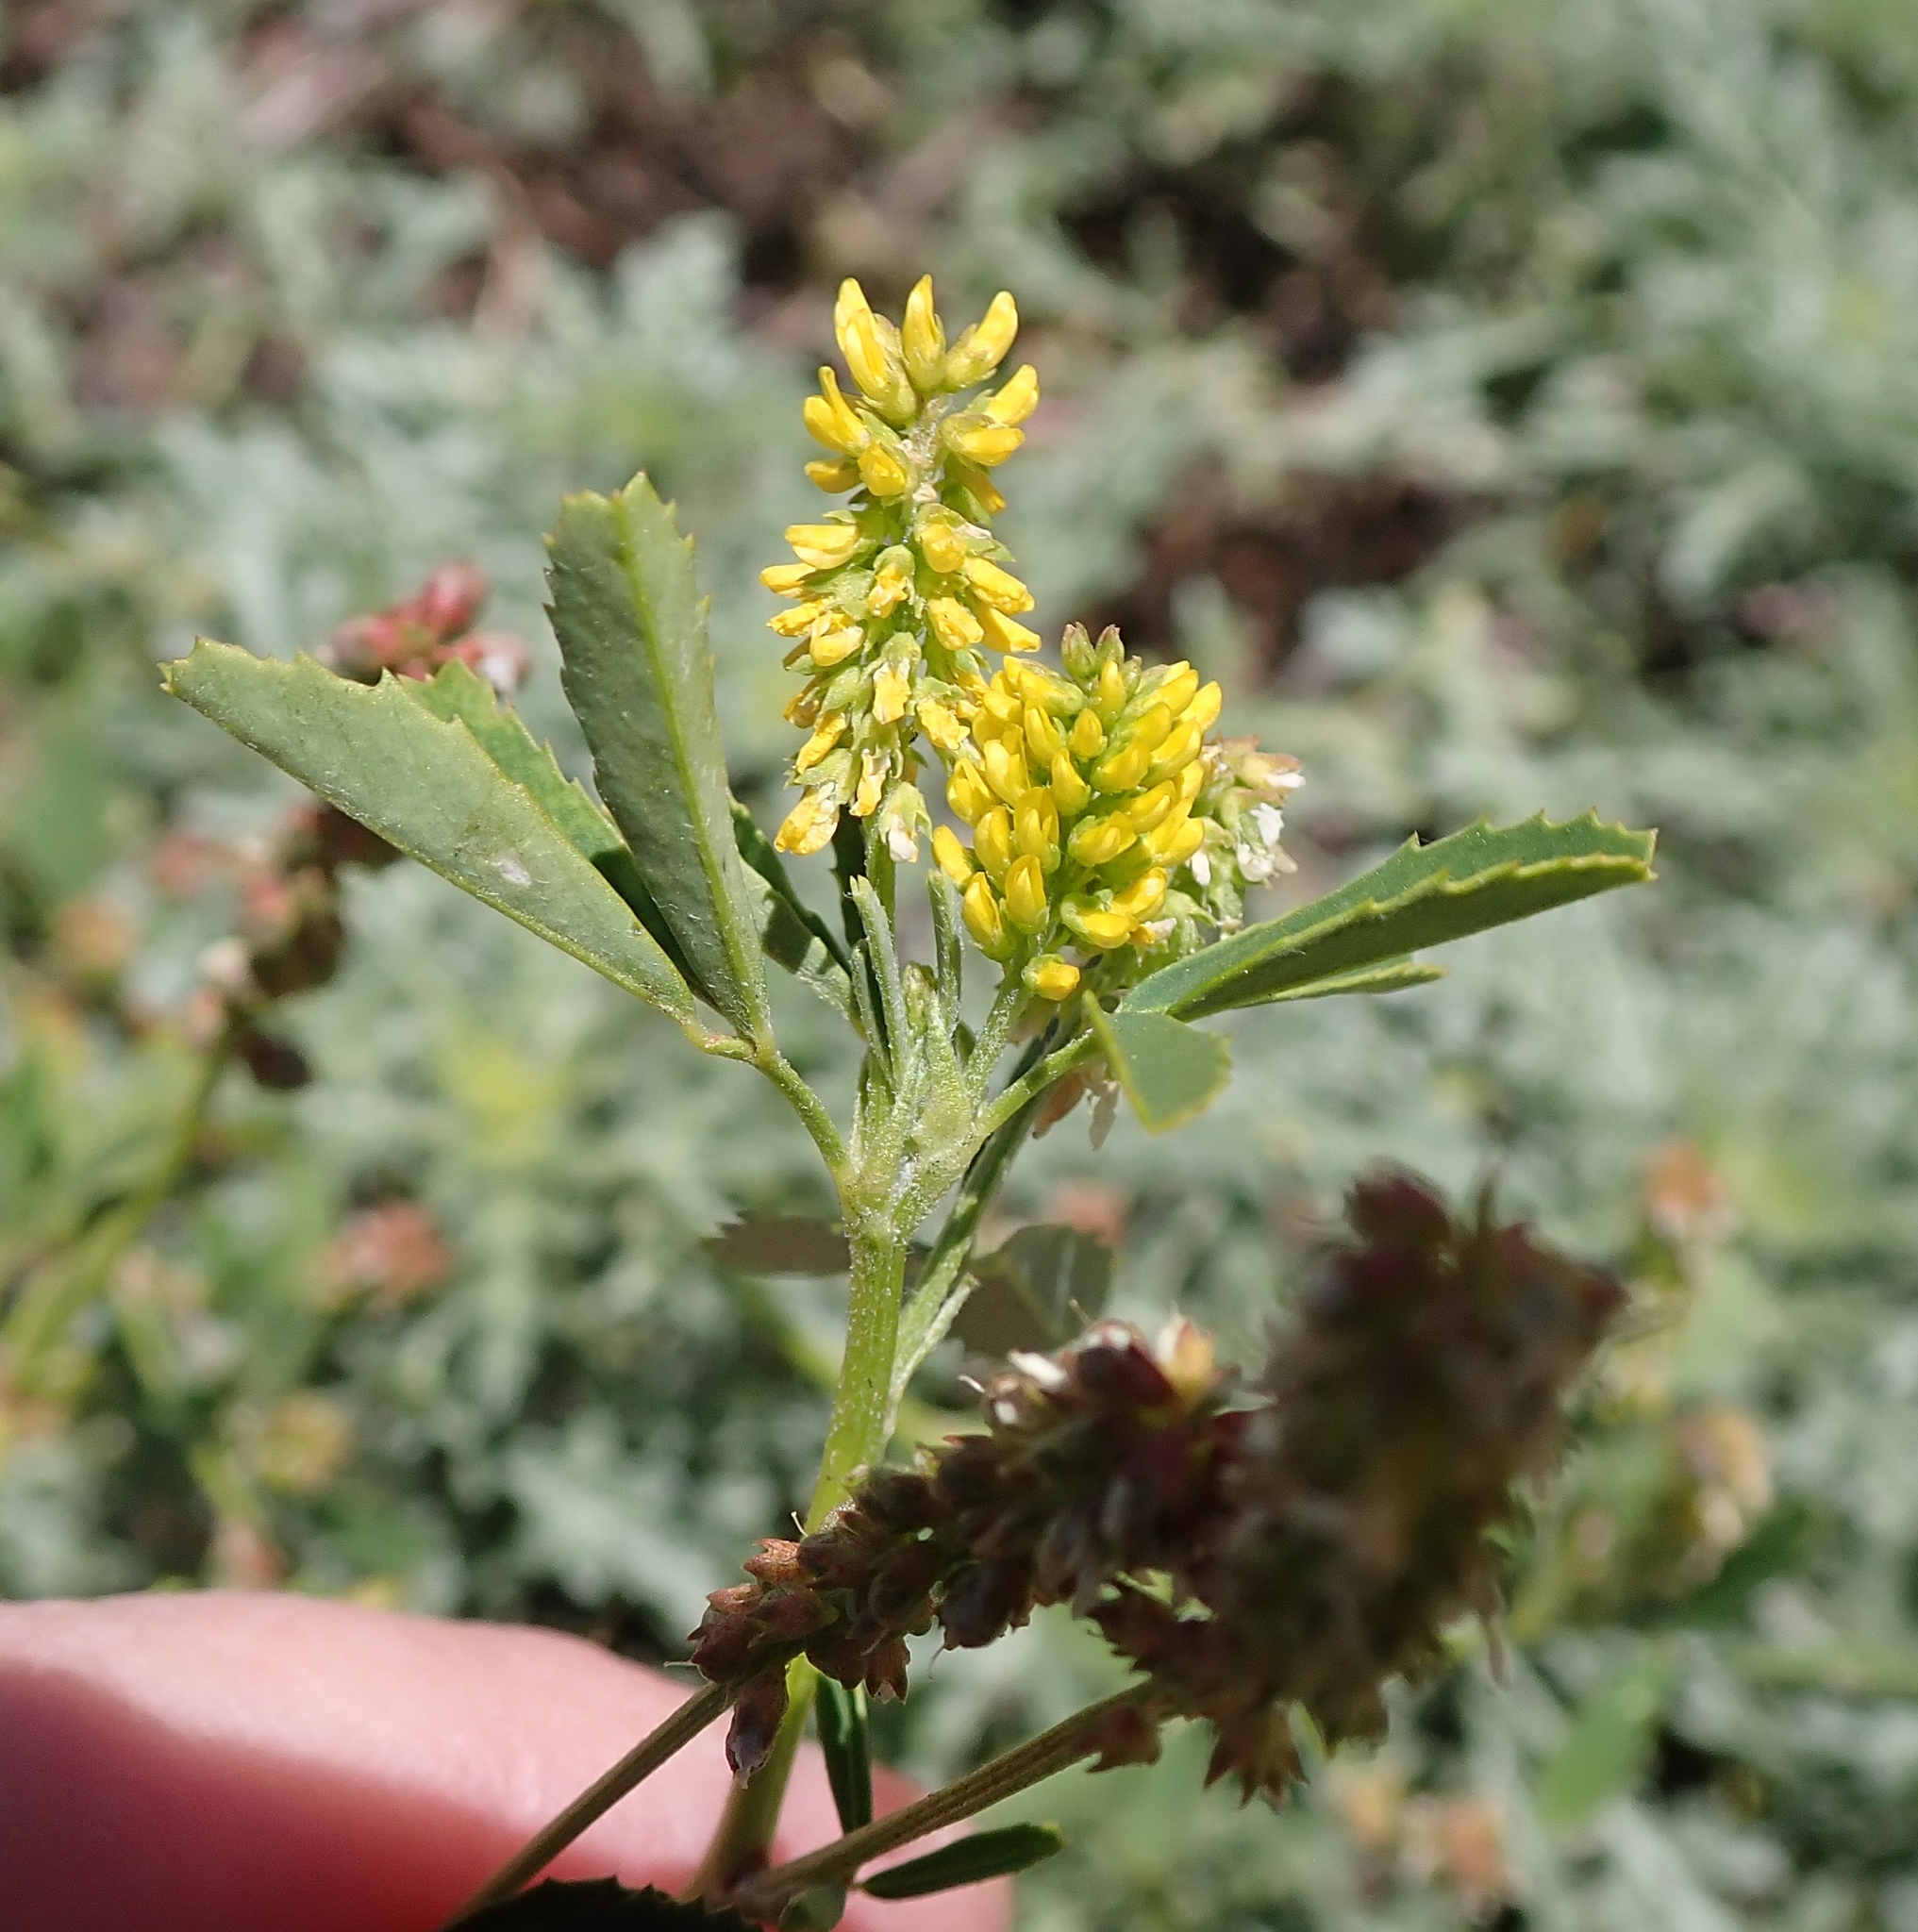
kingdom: Plantae
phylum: Tracheophyta
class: Magnoliopsida
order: Fabales
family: Fabaceae
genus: Melilotus
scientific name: Melilotus indicus
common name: Small melilot
